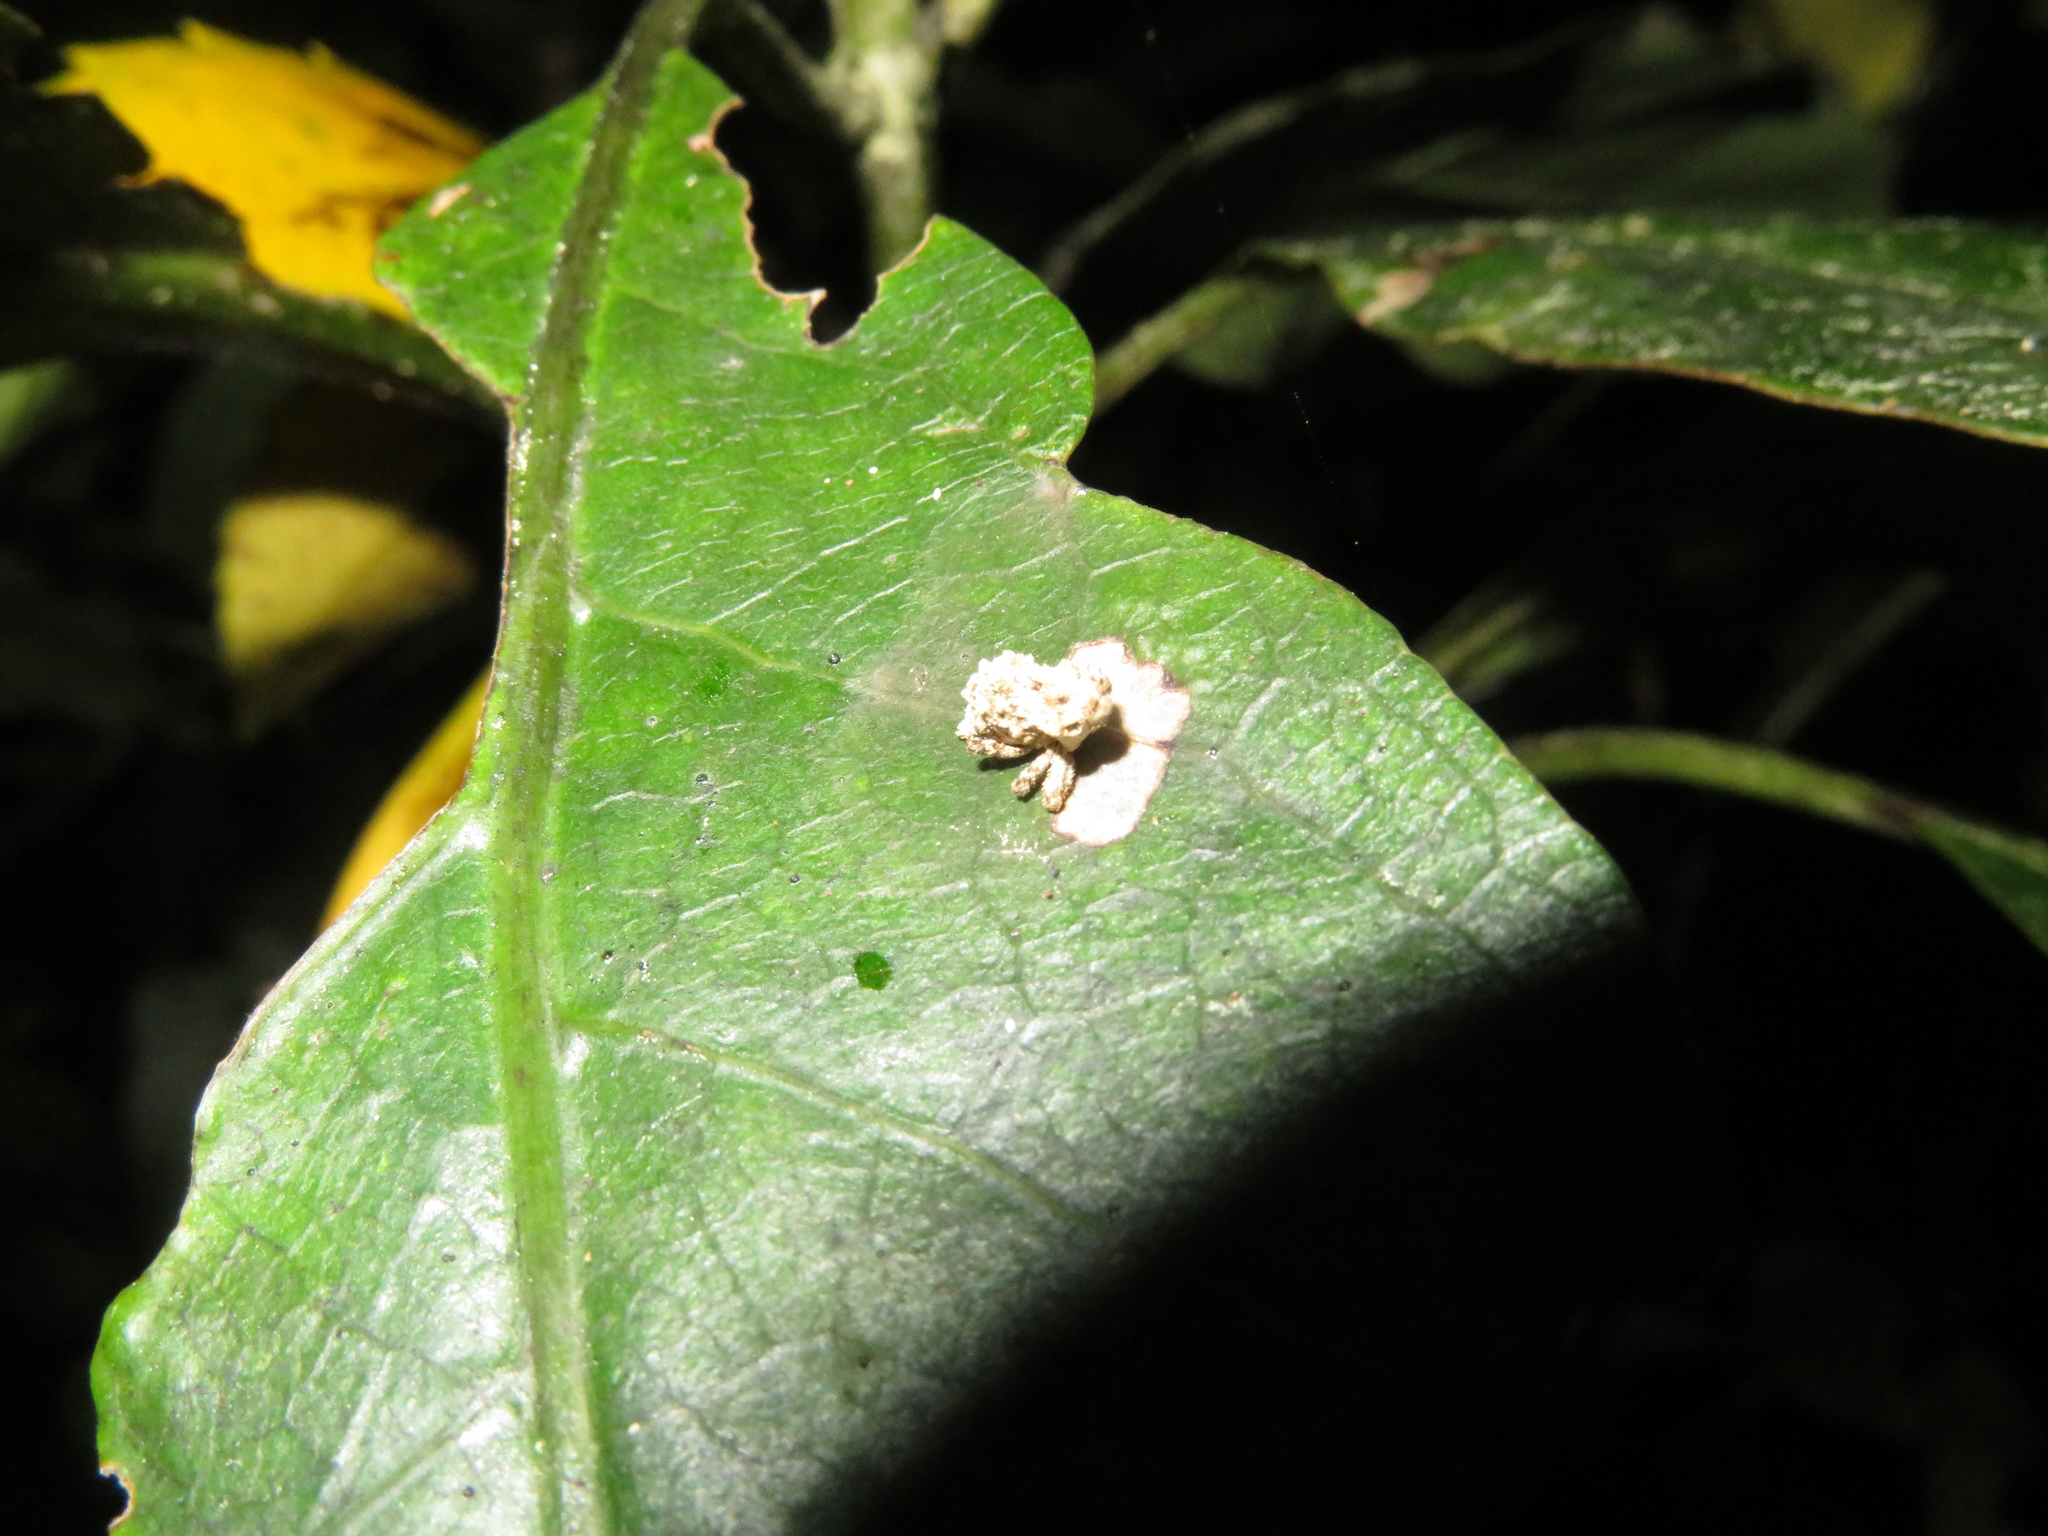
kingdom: Animalia
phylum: Arthropoda
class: Insecta
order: Coleoptera
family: Curculionidae
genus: Indecentia
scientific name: Indecentia nubila
